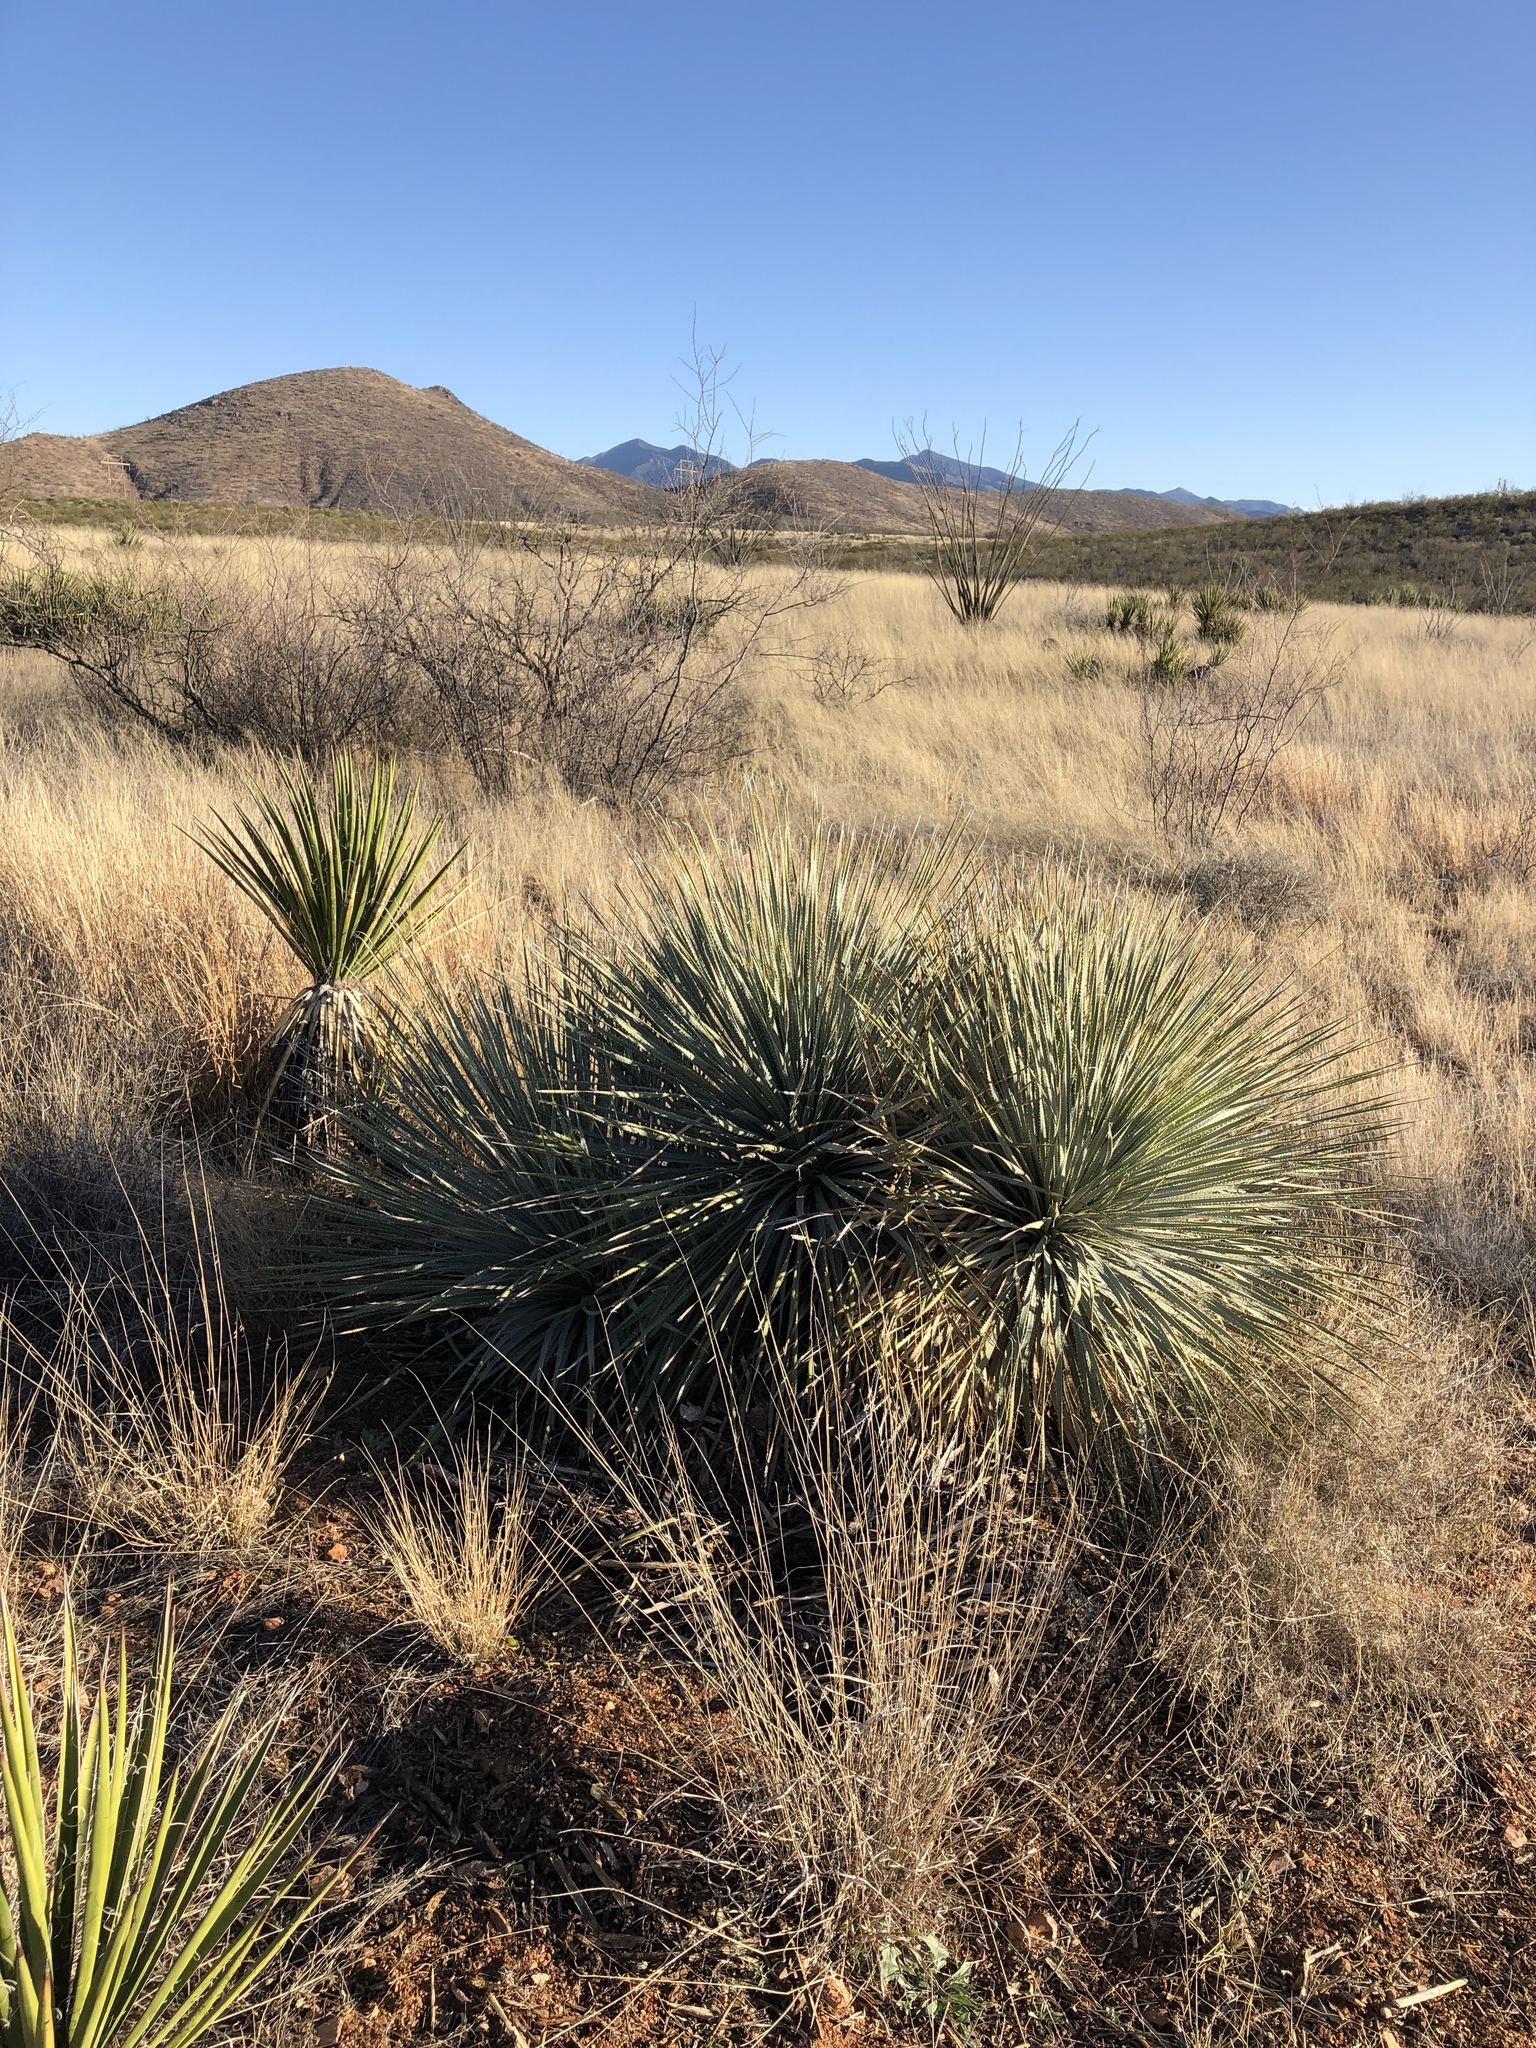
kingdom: Plantae
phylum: Tracheophyta
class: Liliopsida
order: Asparagales
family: Asparagaceae
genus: Dasylirion
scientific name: Dasylirion wheeleri
